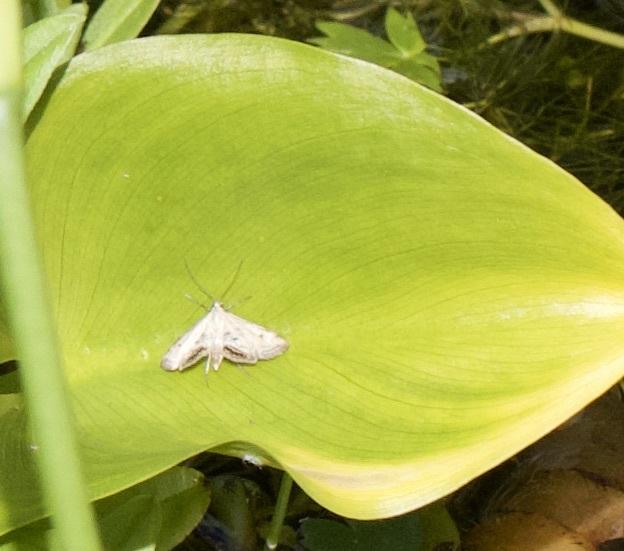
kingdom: Animalia
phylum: Arthropoda
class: Insecta
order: Lepidoptera
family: Crambidae
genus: Cataclysta
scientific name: Cataclysta lemnata
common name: Small china-mark
